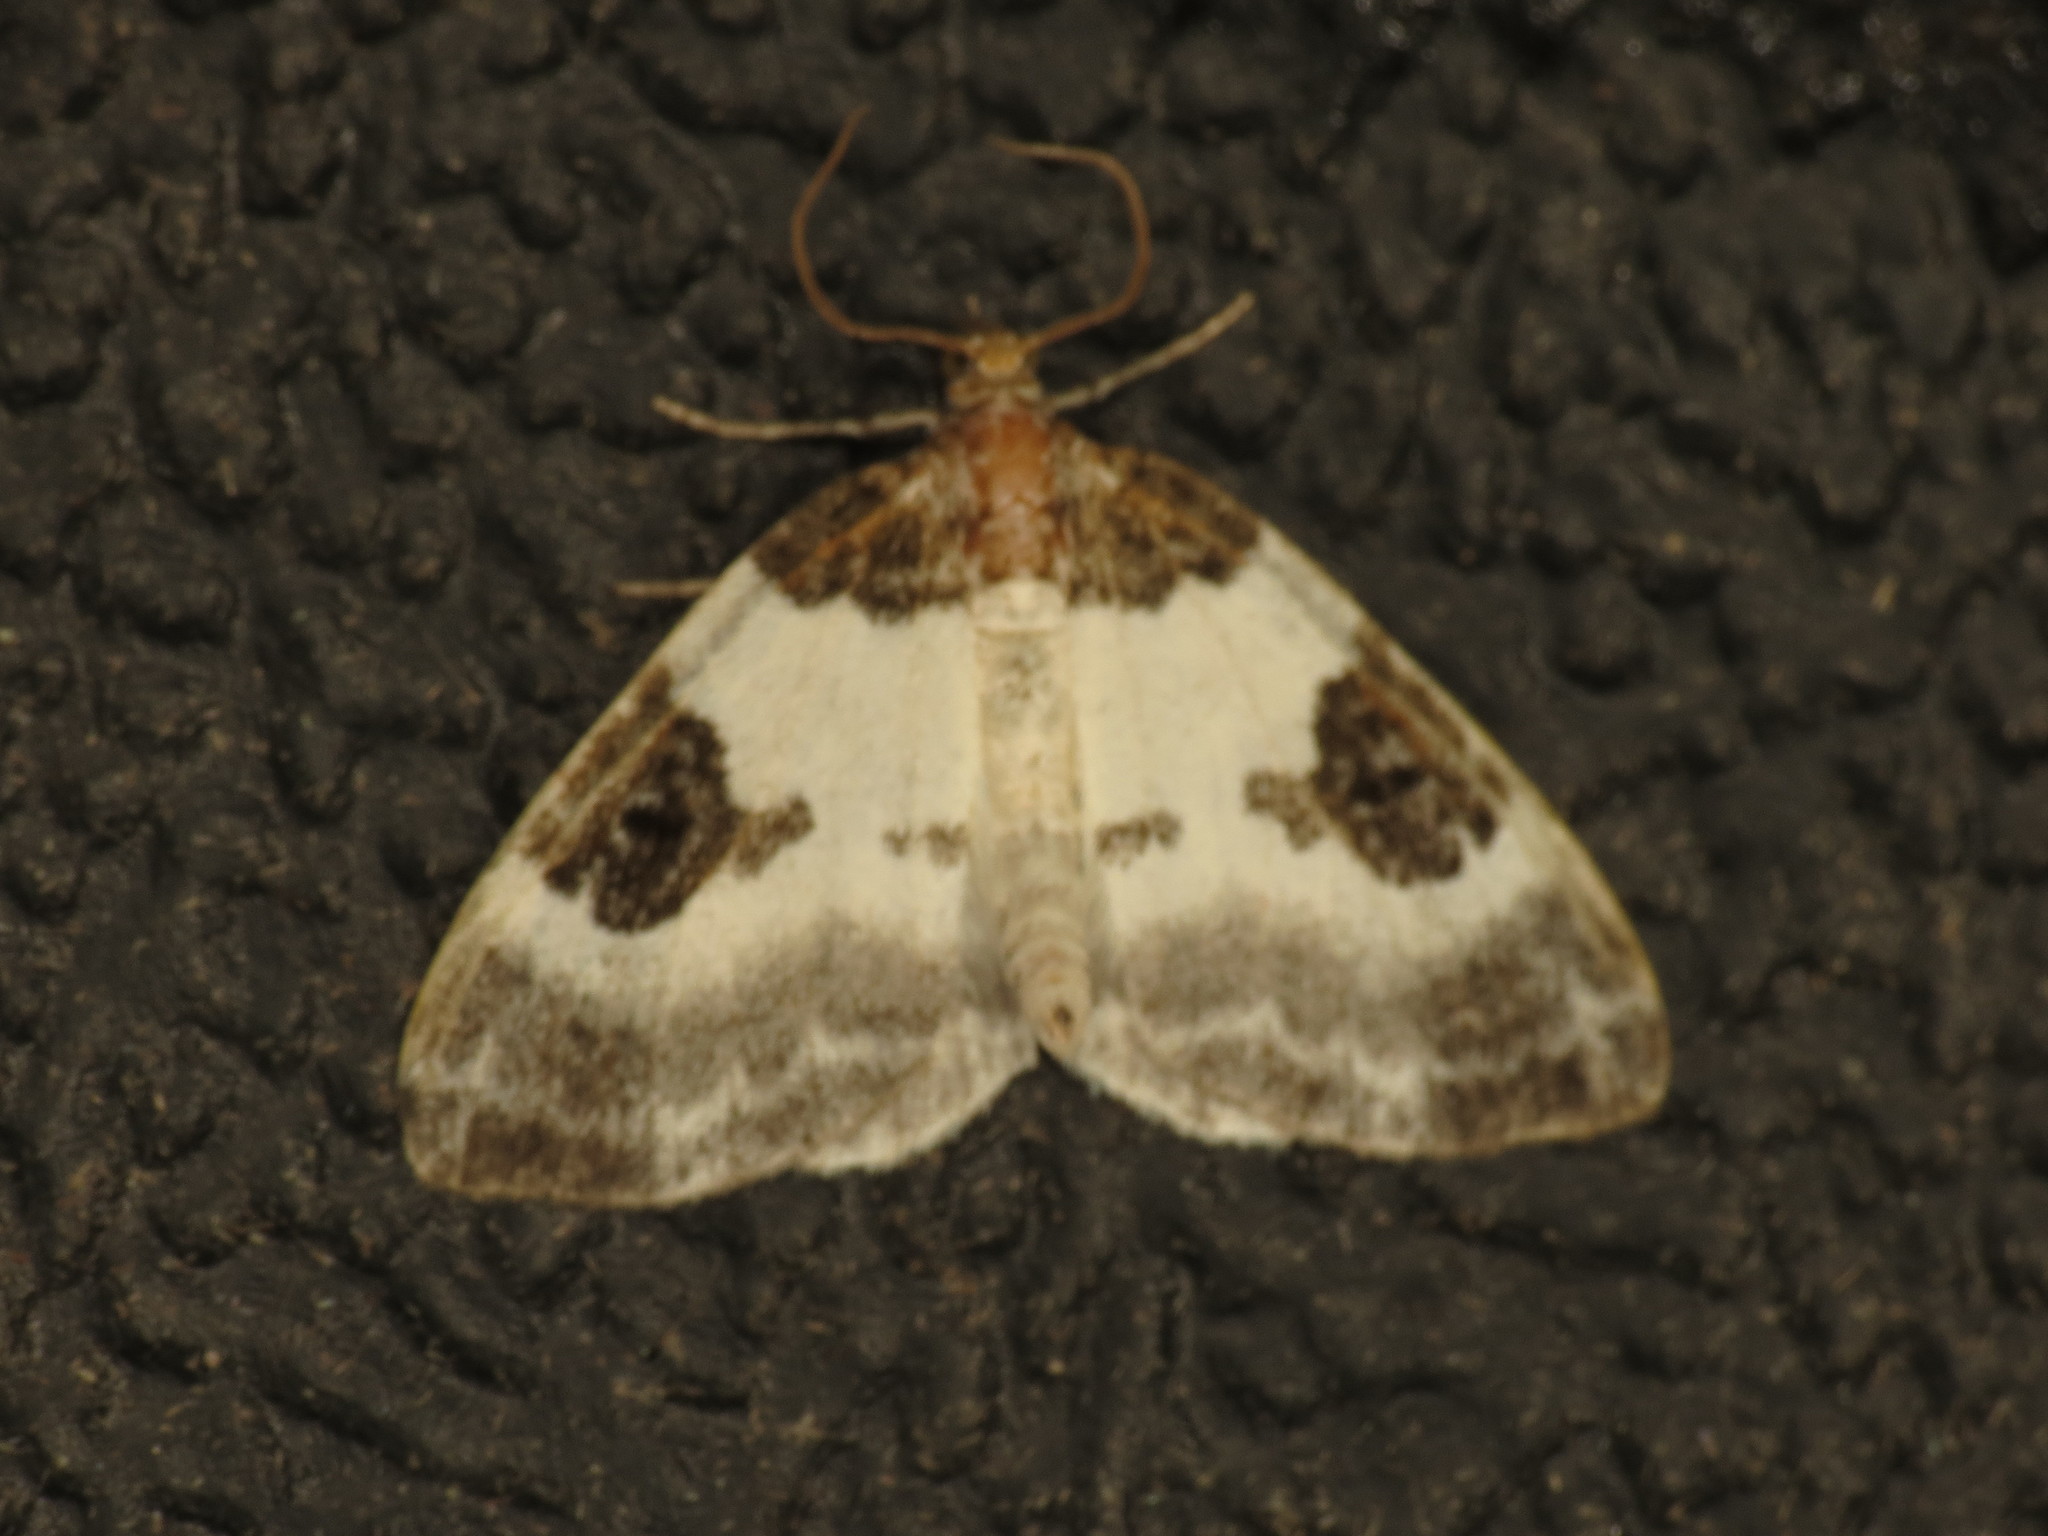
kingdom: Animalia
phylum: Arthropoda
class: Insecta
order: Lepidoptera
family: Geometridae
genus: Plemyria
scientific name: Plemyria rubiginata
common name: Blue-bordered carpet
